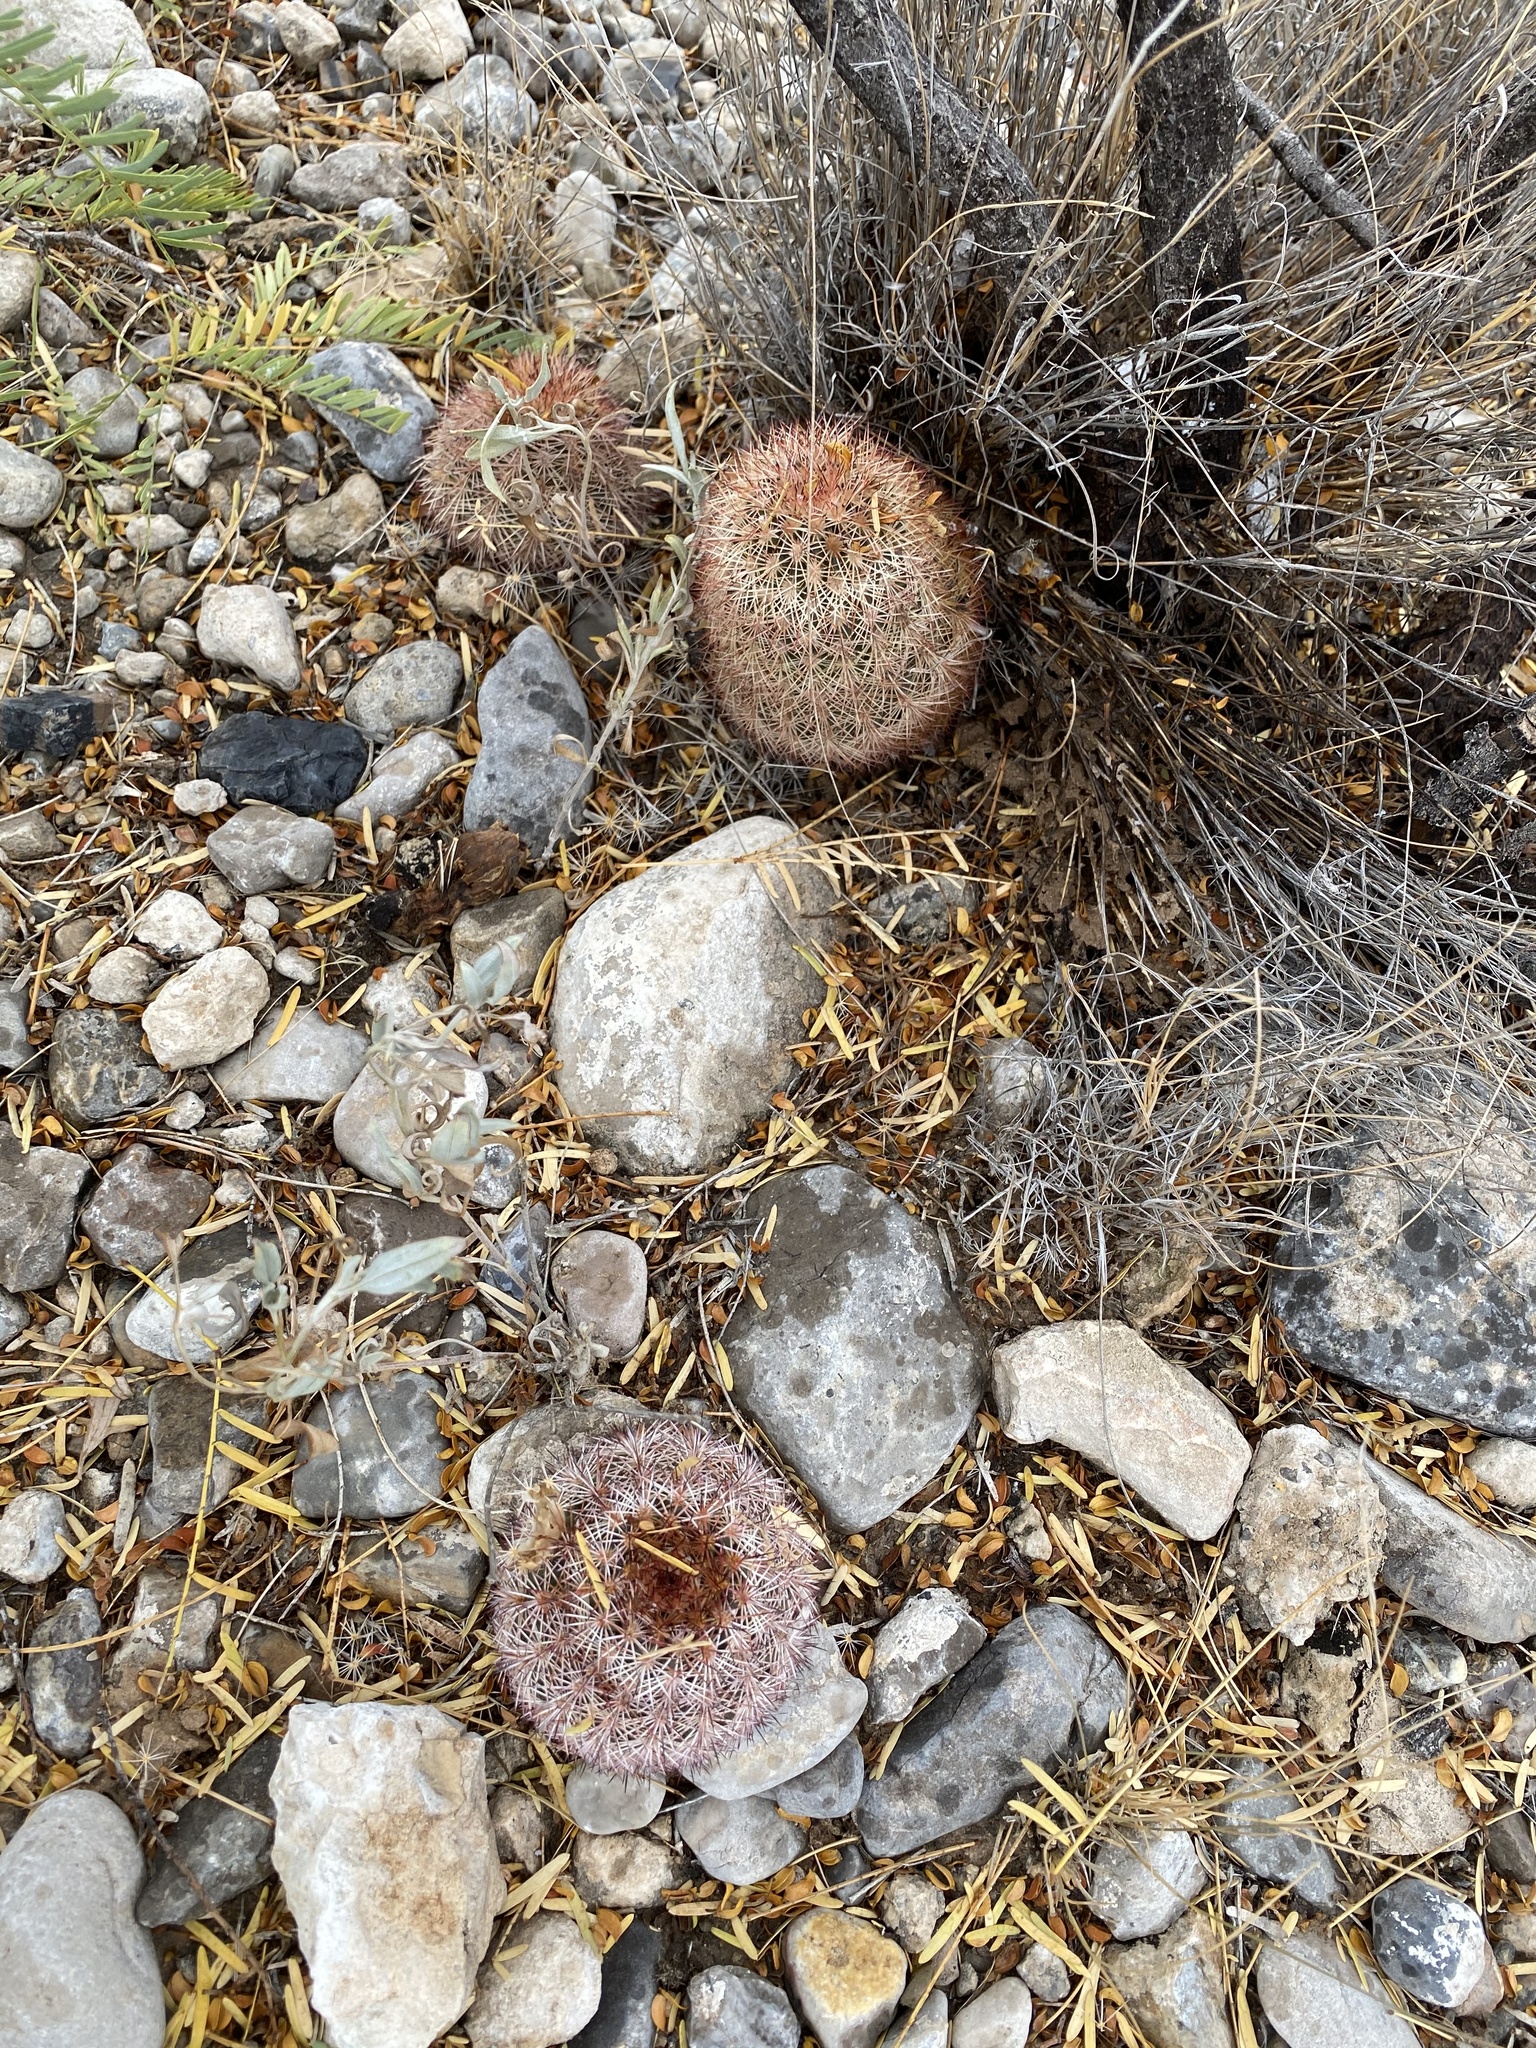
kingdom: Plantae
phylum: Tracheophyta
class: Magnoliopsida
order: Caryophyllales
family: Cactaceae
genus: Echinocereus
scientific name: Echinocereus dasyacanthus
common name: Spiny hedgehog cactus
